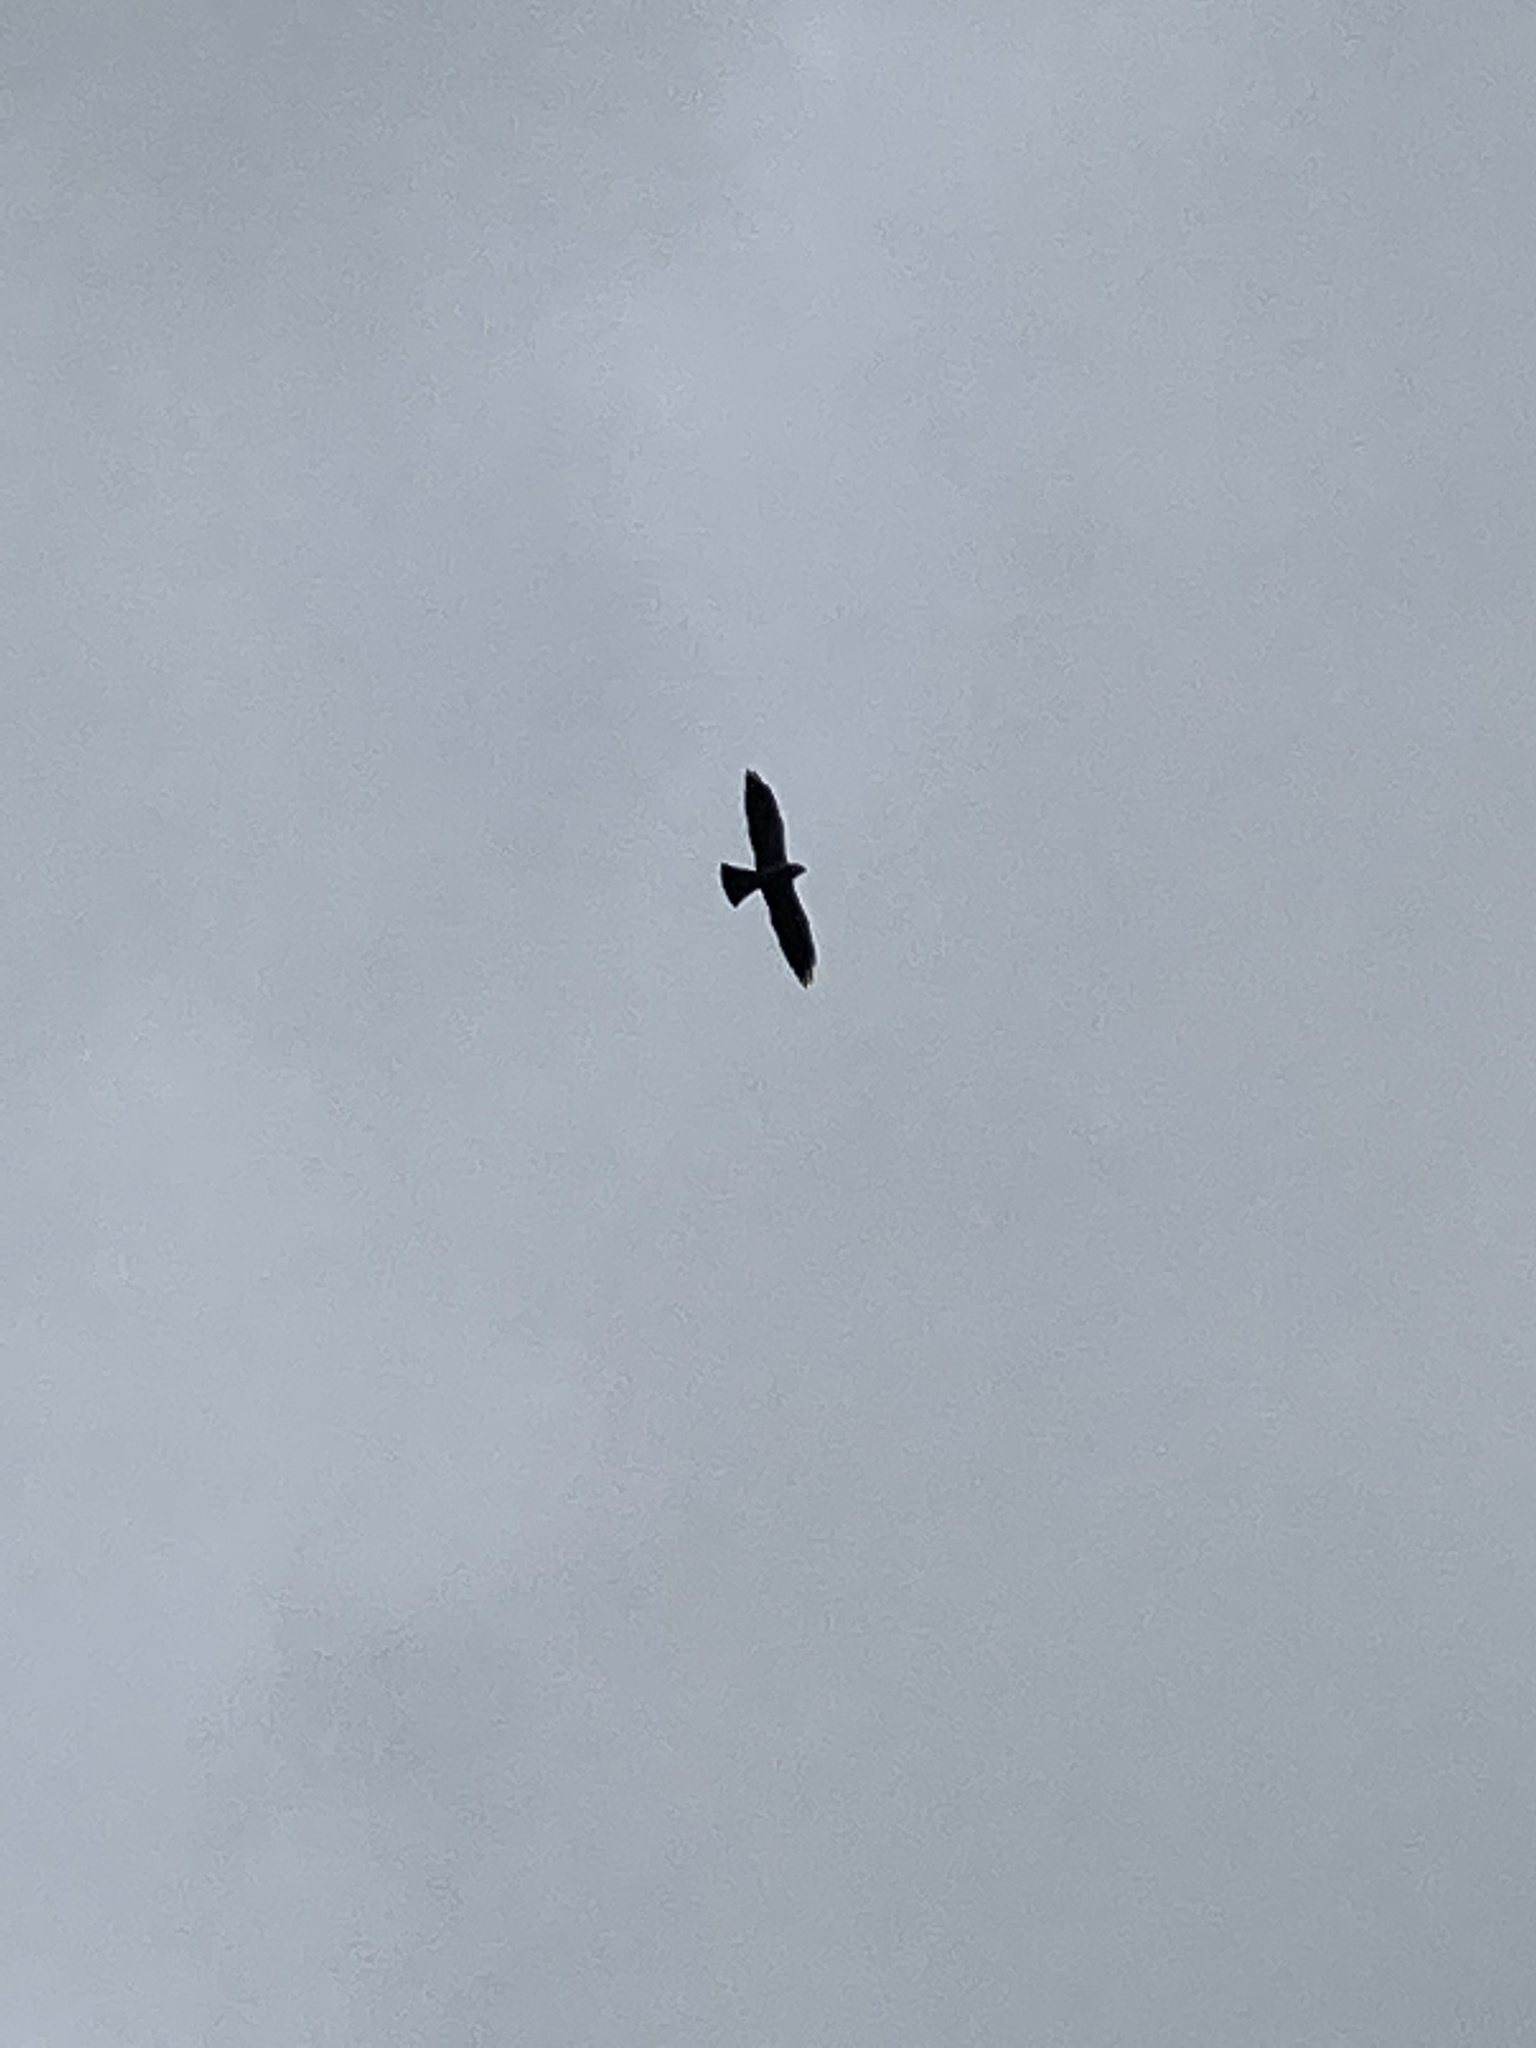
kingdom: Animalia
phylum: Chordata
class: Aves
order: Accipitriformes
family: Accipitridae
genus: Ictinia
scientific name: Ictinia mississippiensis
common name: Mississippi kite
